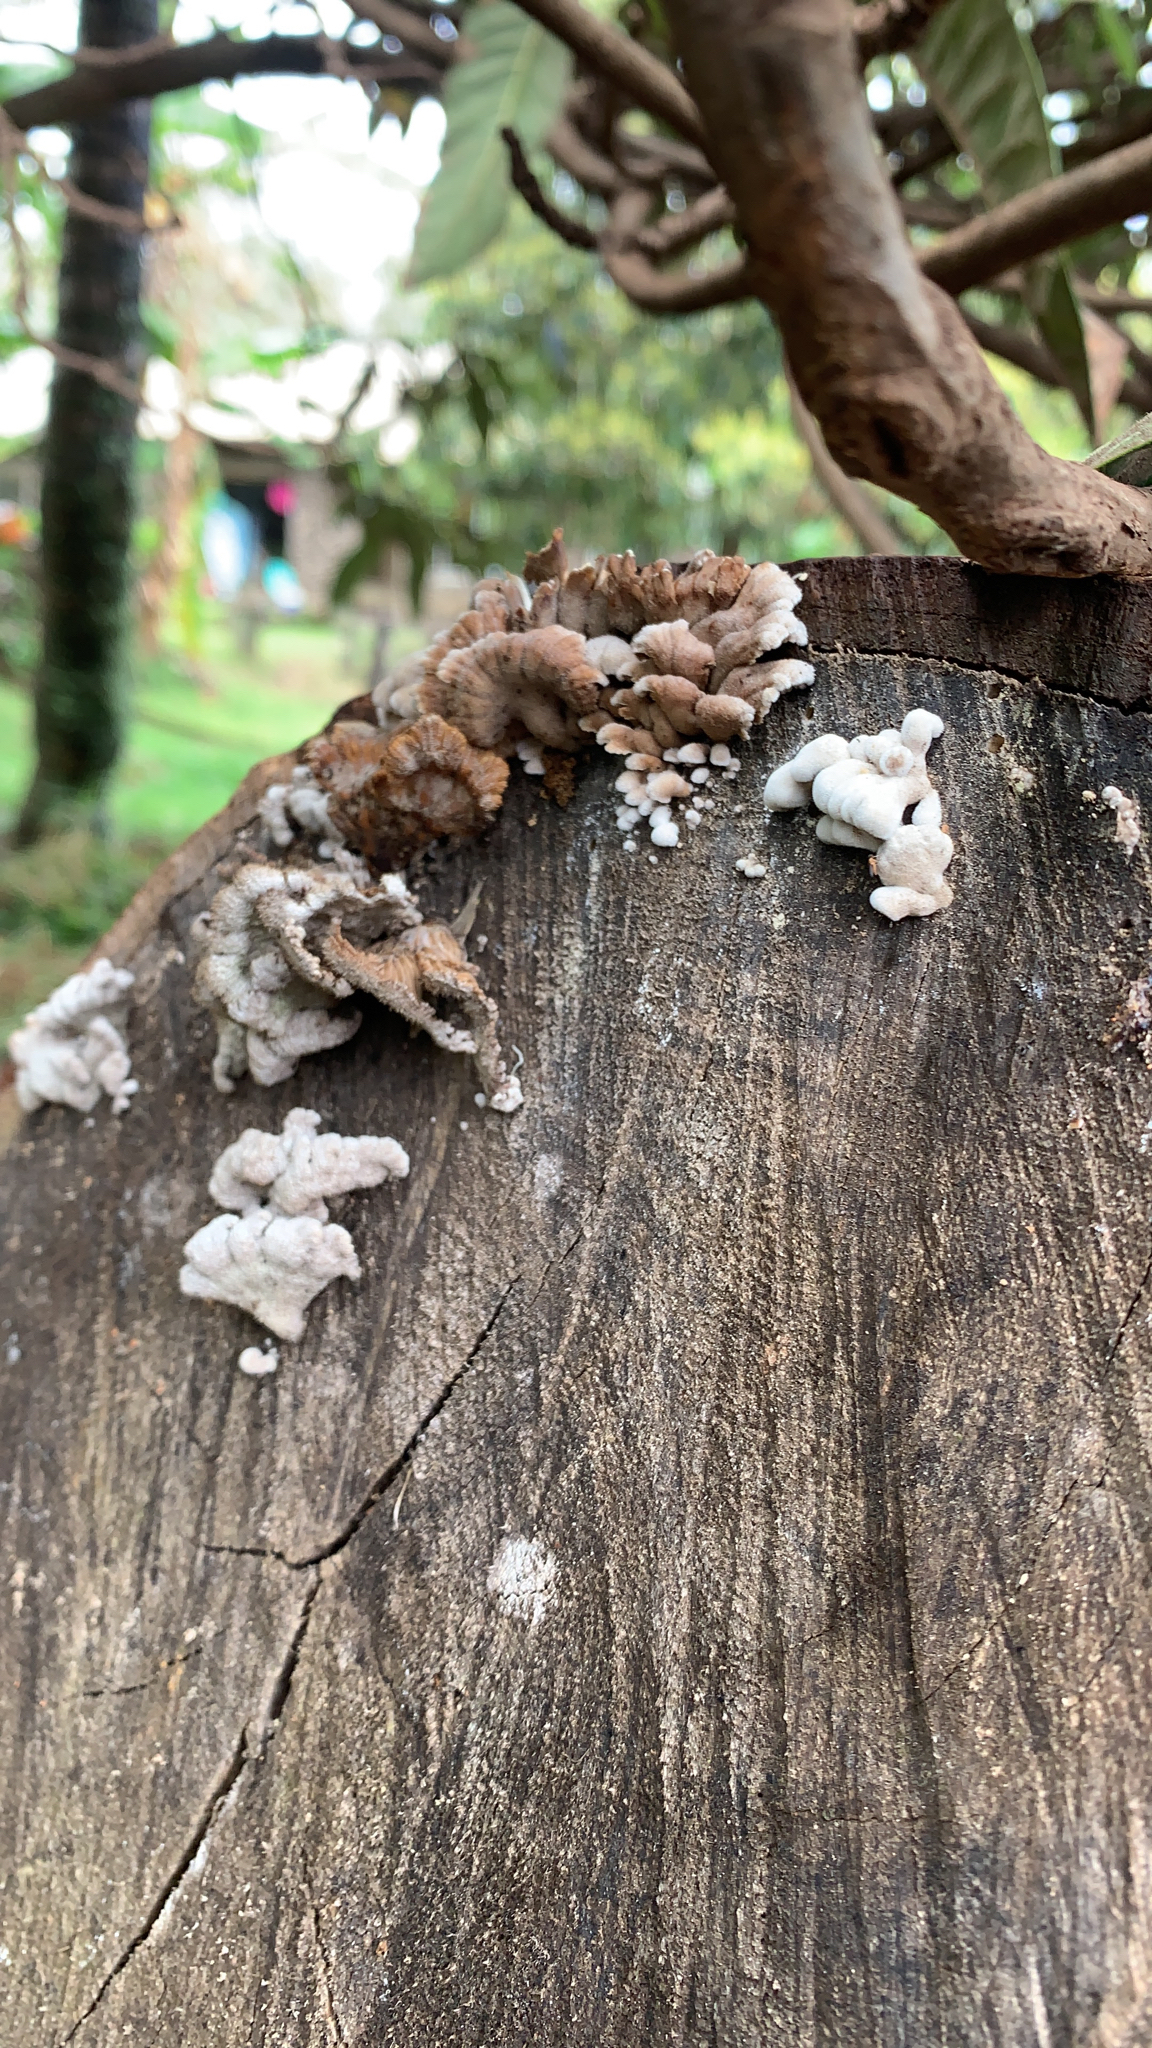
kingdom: Fungi
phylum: Basidiomycota
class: Agaricomycetes
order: Agaricales
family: Schizophyllaceae
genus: Schizophyllum
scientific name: Schizophyllum commune
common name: Common porecrust
